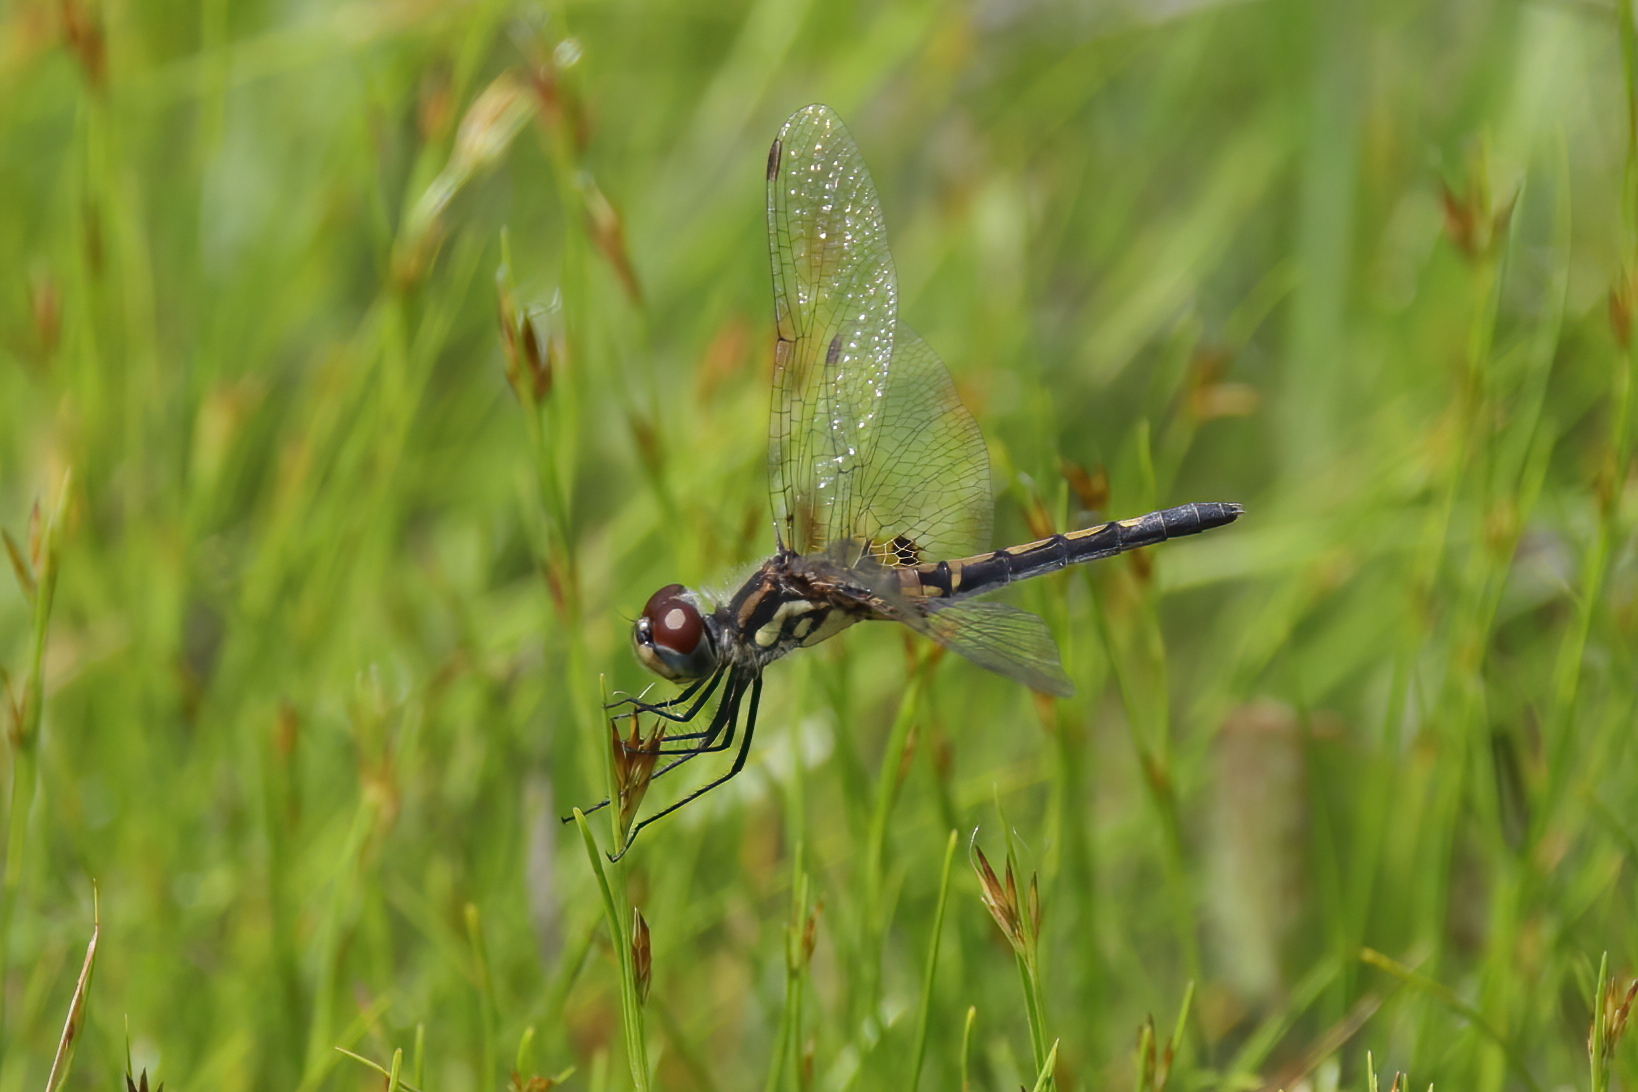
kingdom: Animalia
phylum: Arthropoda
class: Insecta
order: Odonata
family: Libellulidae
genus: Celithemis
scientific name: Celithemis ornata
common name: Ornate pennant
